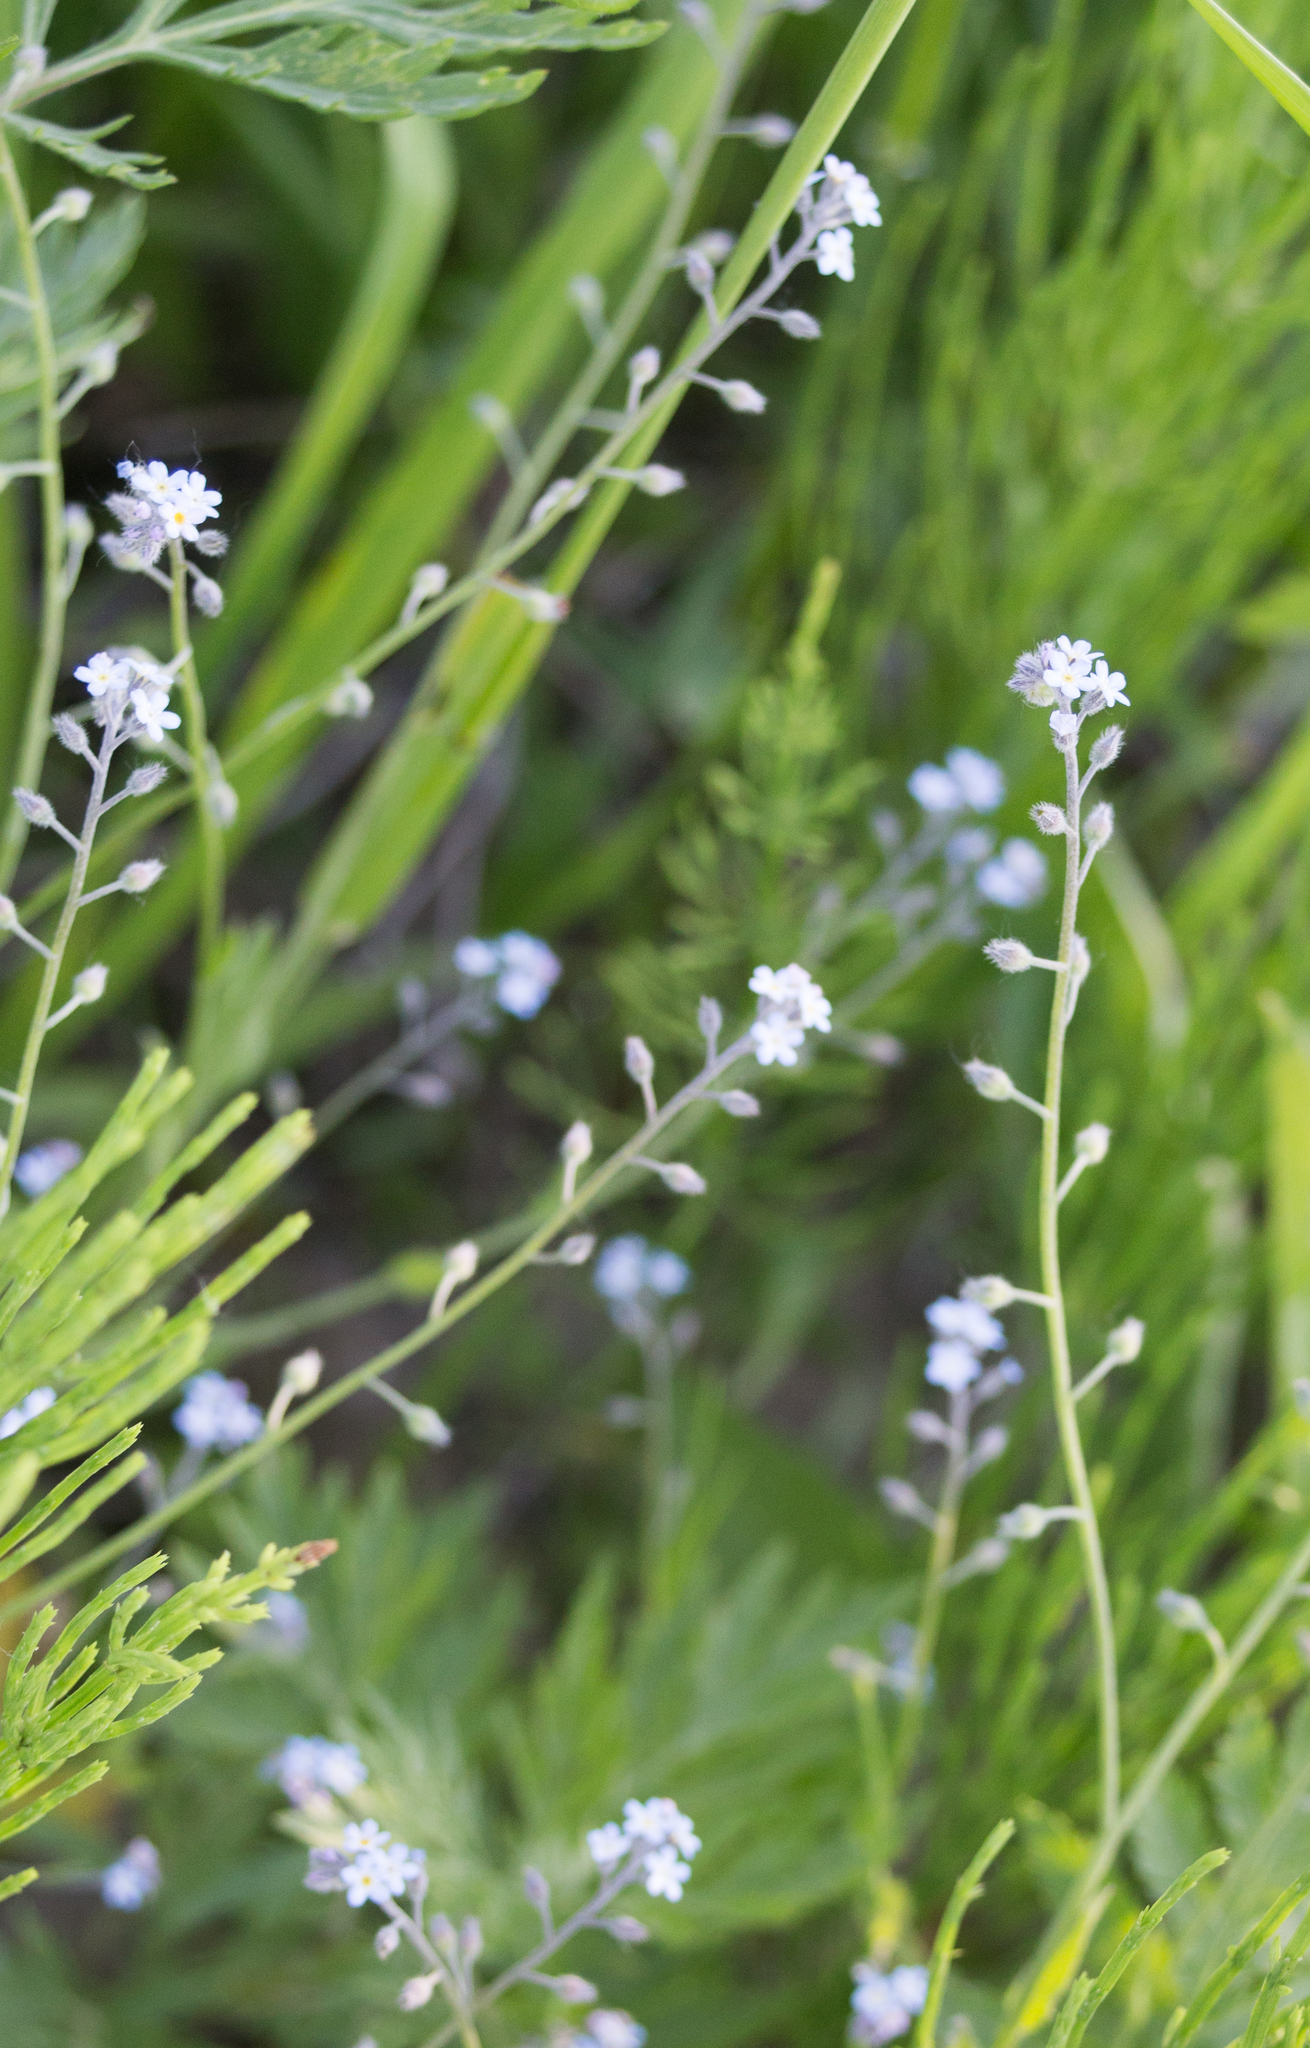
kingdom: Plantae
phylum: Tracheophyta
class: Magnoliopsida
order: Boraginales
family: Boraginaceae
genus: Myosotis
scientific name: Myosotis arvensis
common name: Field forget-me-not
